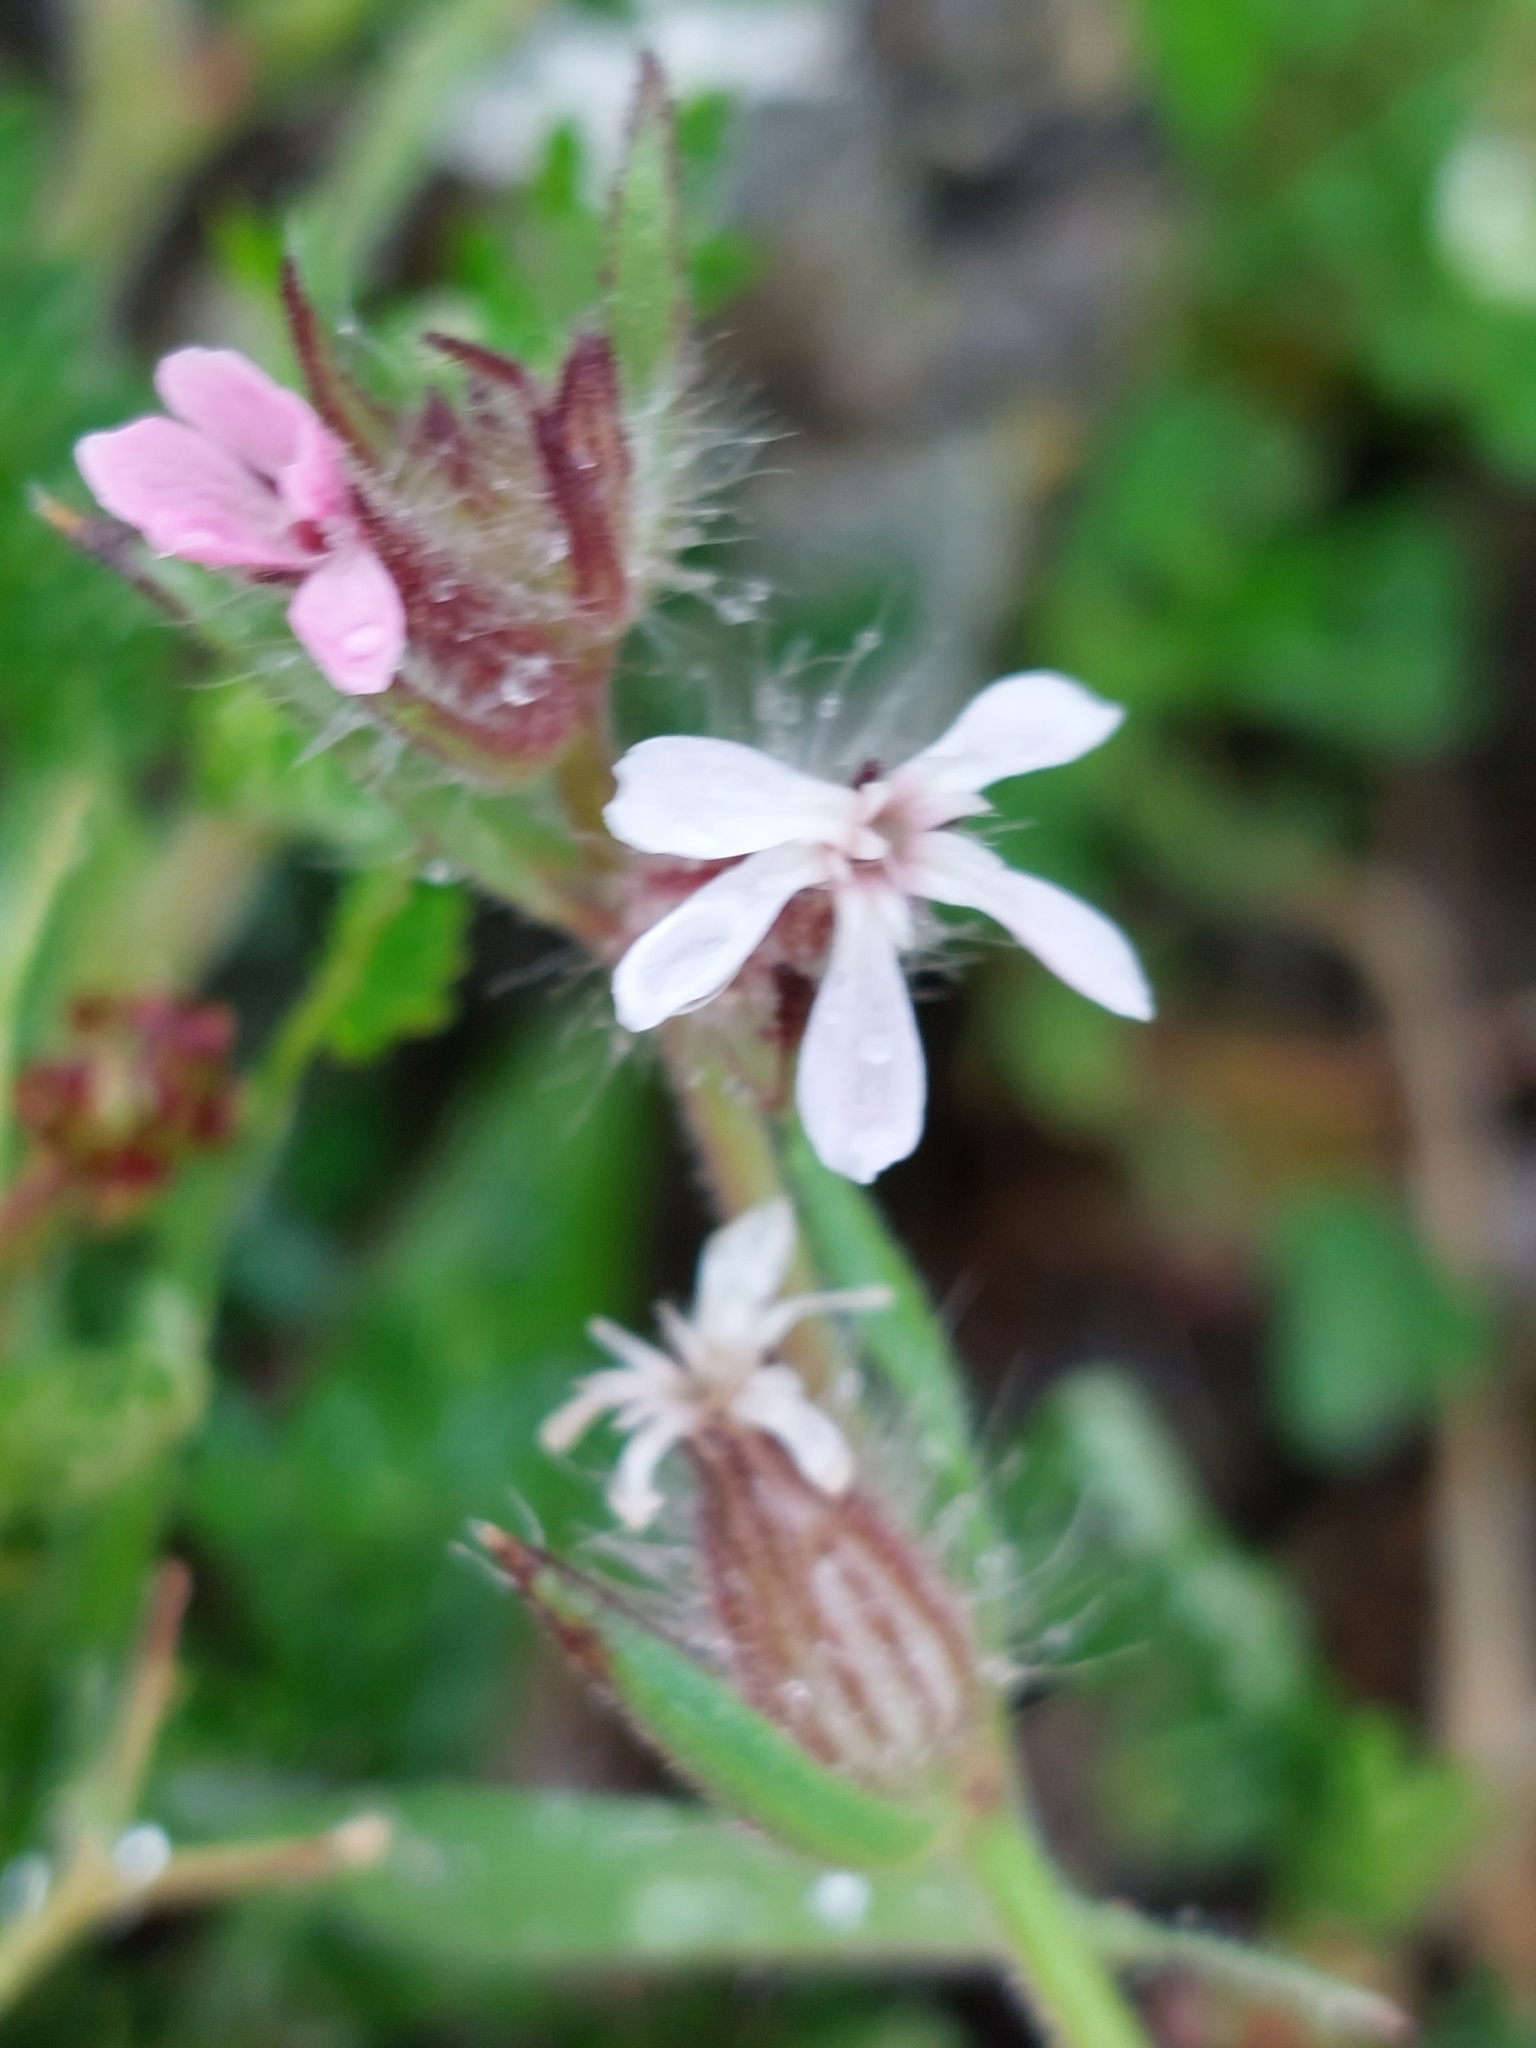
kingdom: Plantae
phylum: Tracheophyta
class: Magnoliopsida
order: Caryophyllales
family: Caryophyllaceae
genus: Silene
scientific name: Silene gallica
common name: Small-flowered catchfly
